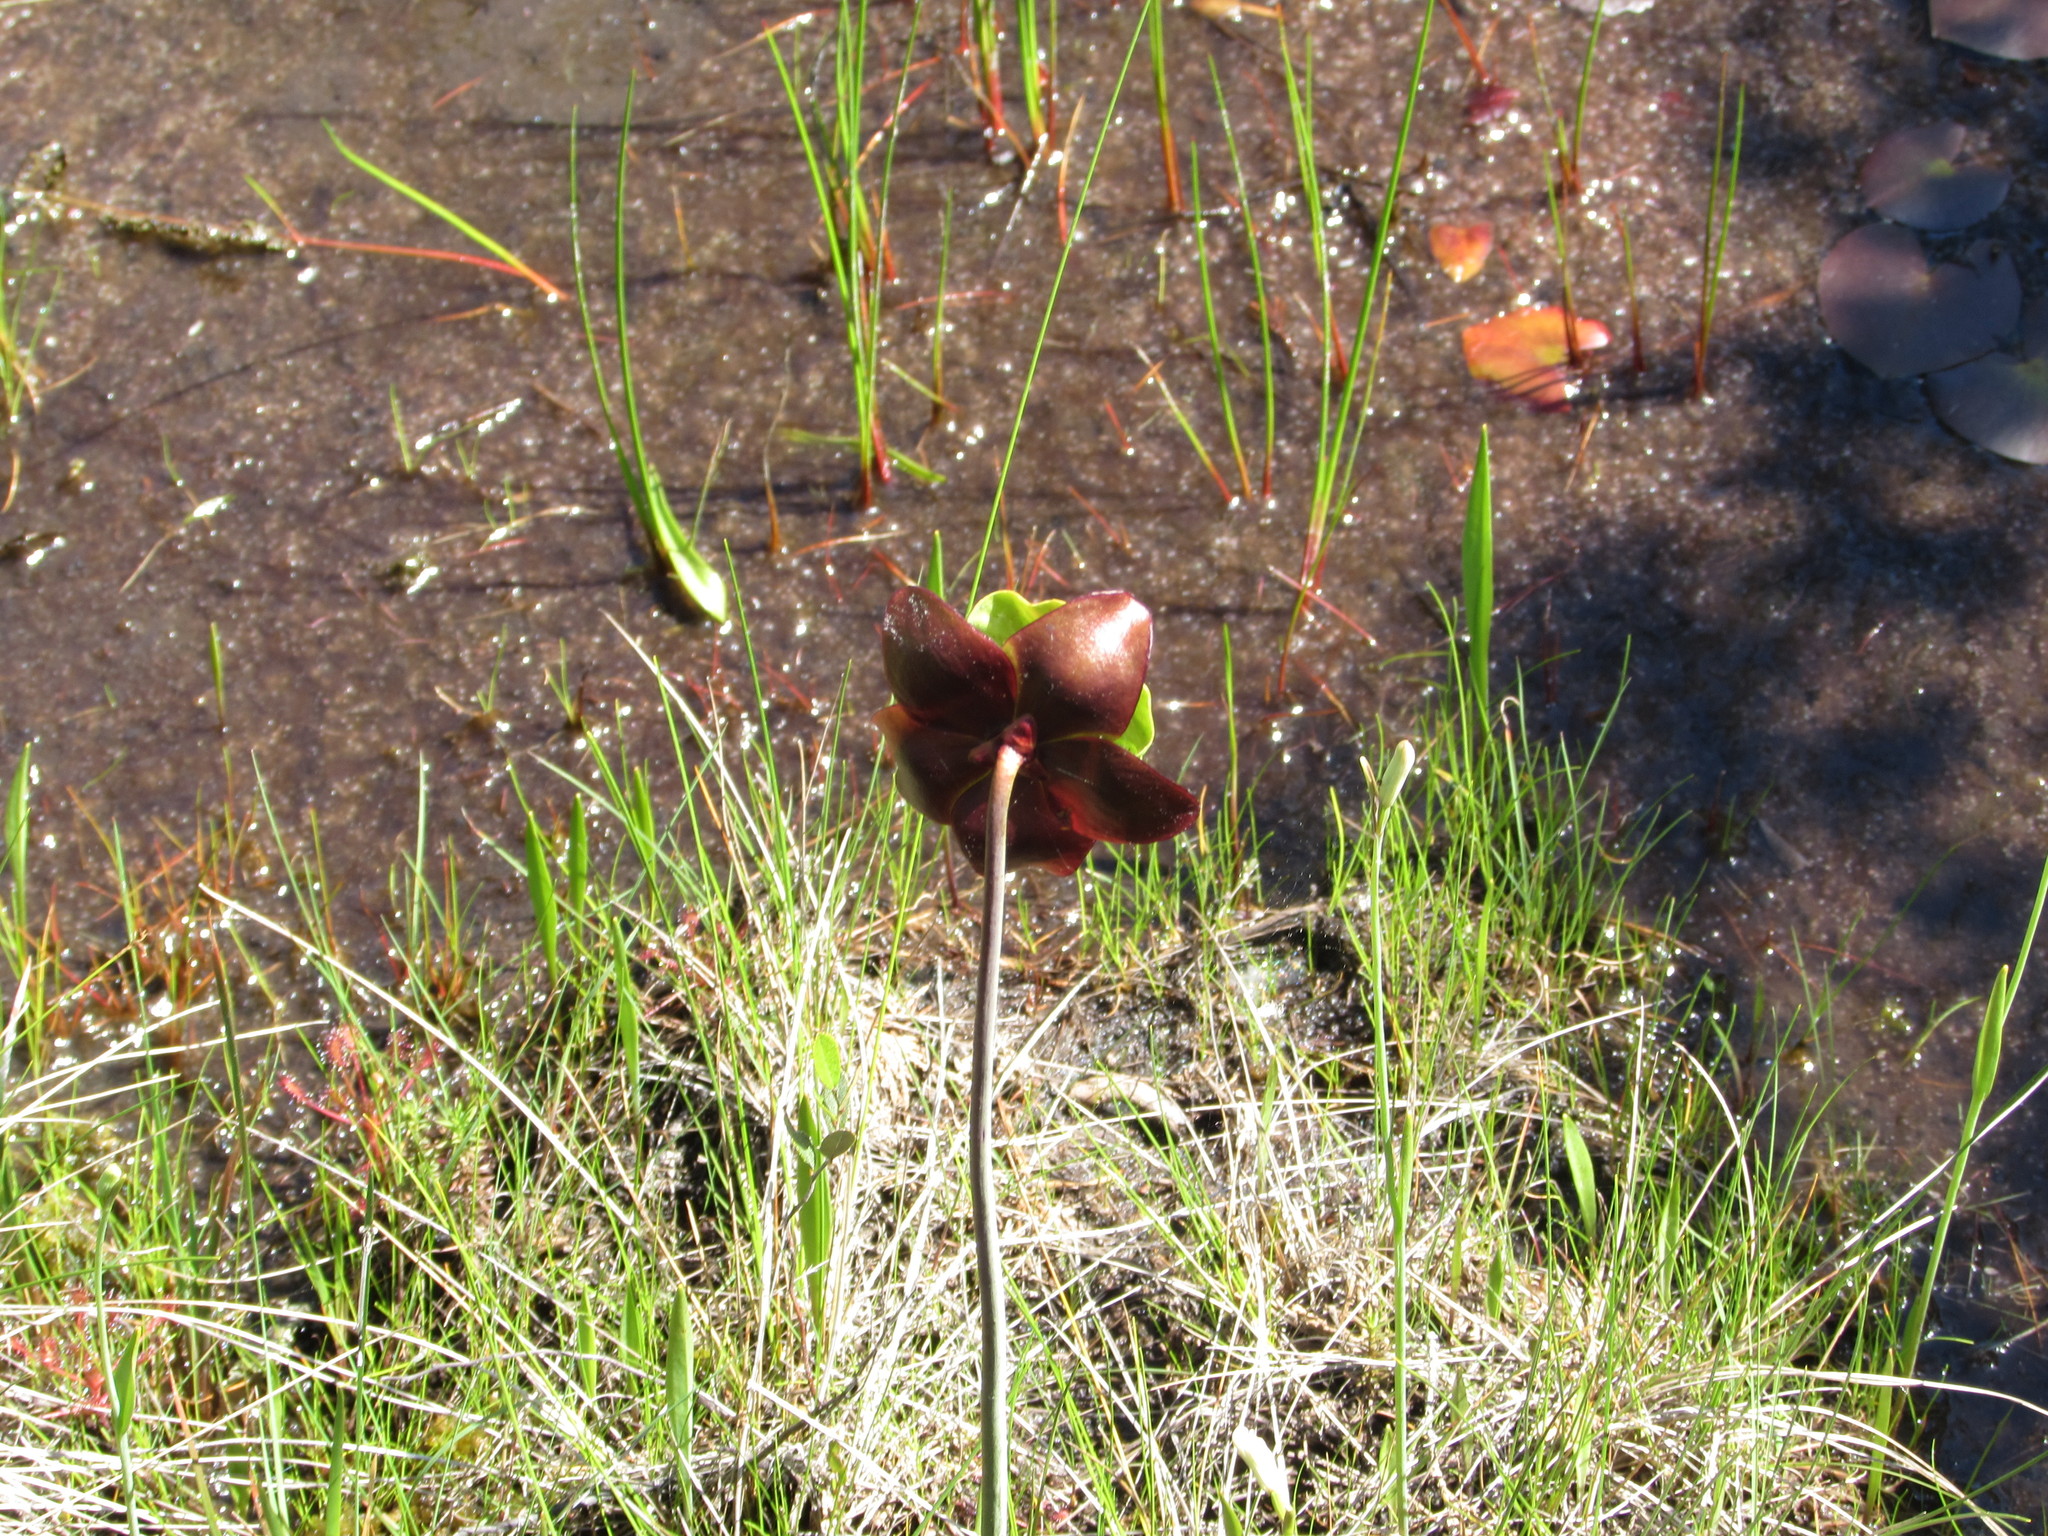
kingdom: Plantae
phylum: Tracheophyta
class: Magnoliopsida
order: Ericales
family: Sarraceniaceae
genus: Sarracenia
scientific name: Sarracenia purpurea
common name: Pitcherplant
